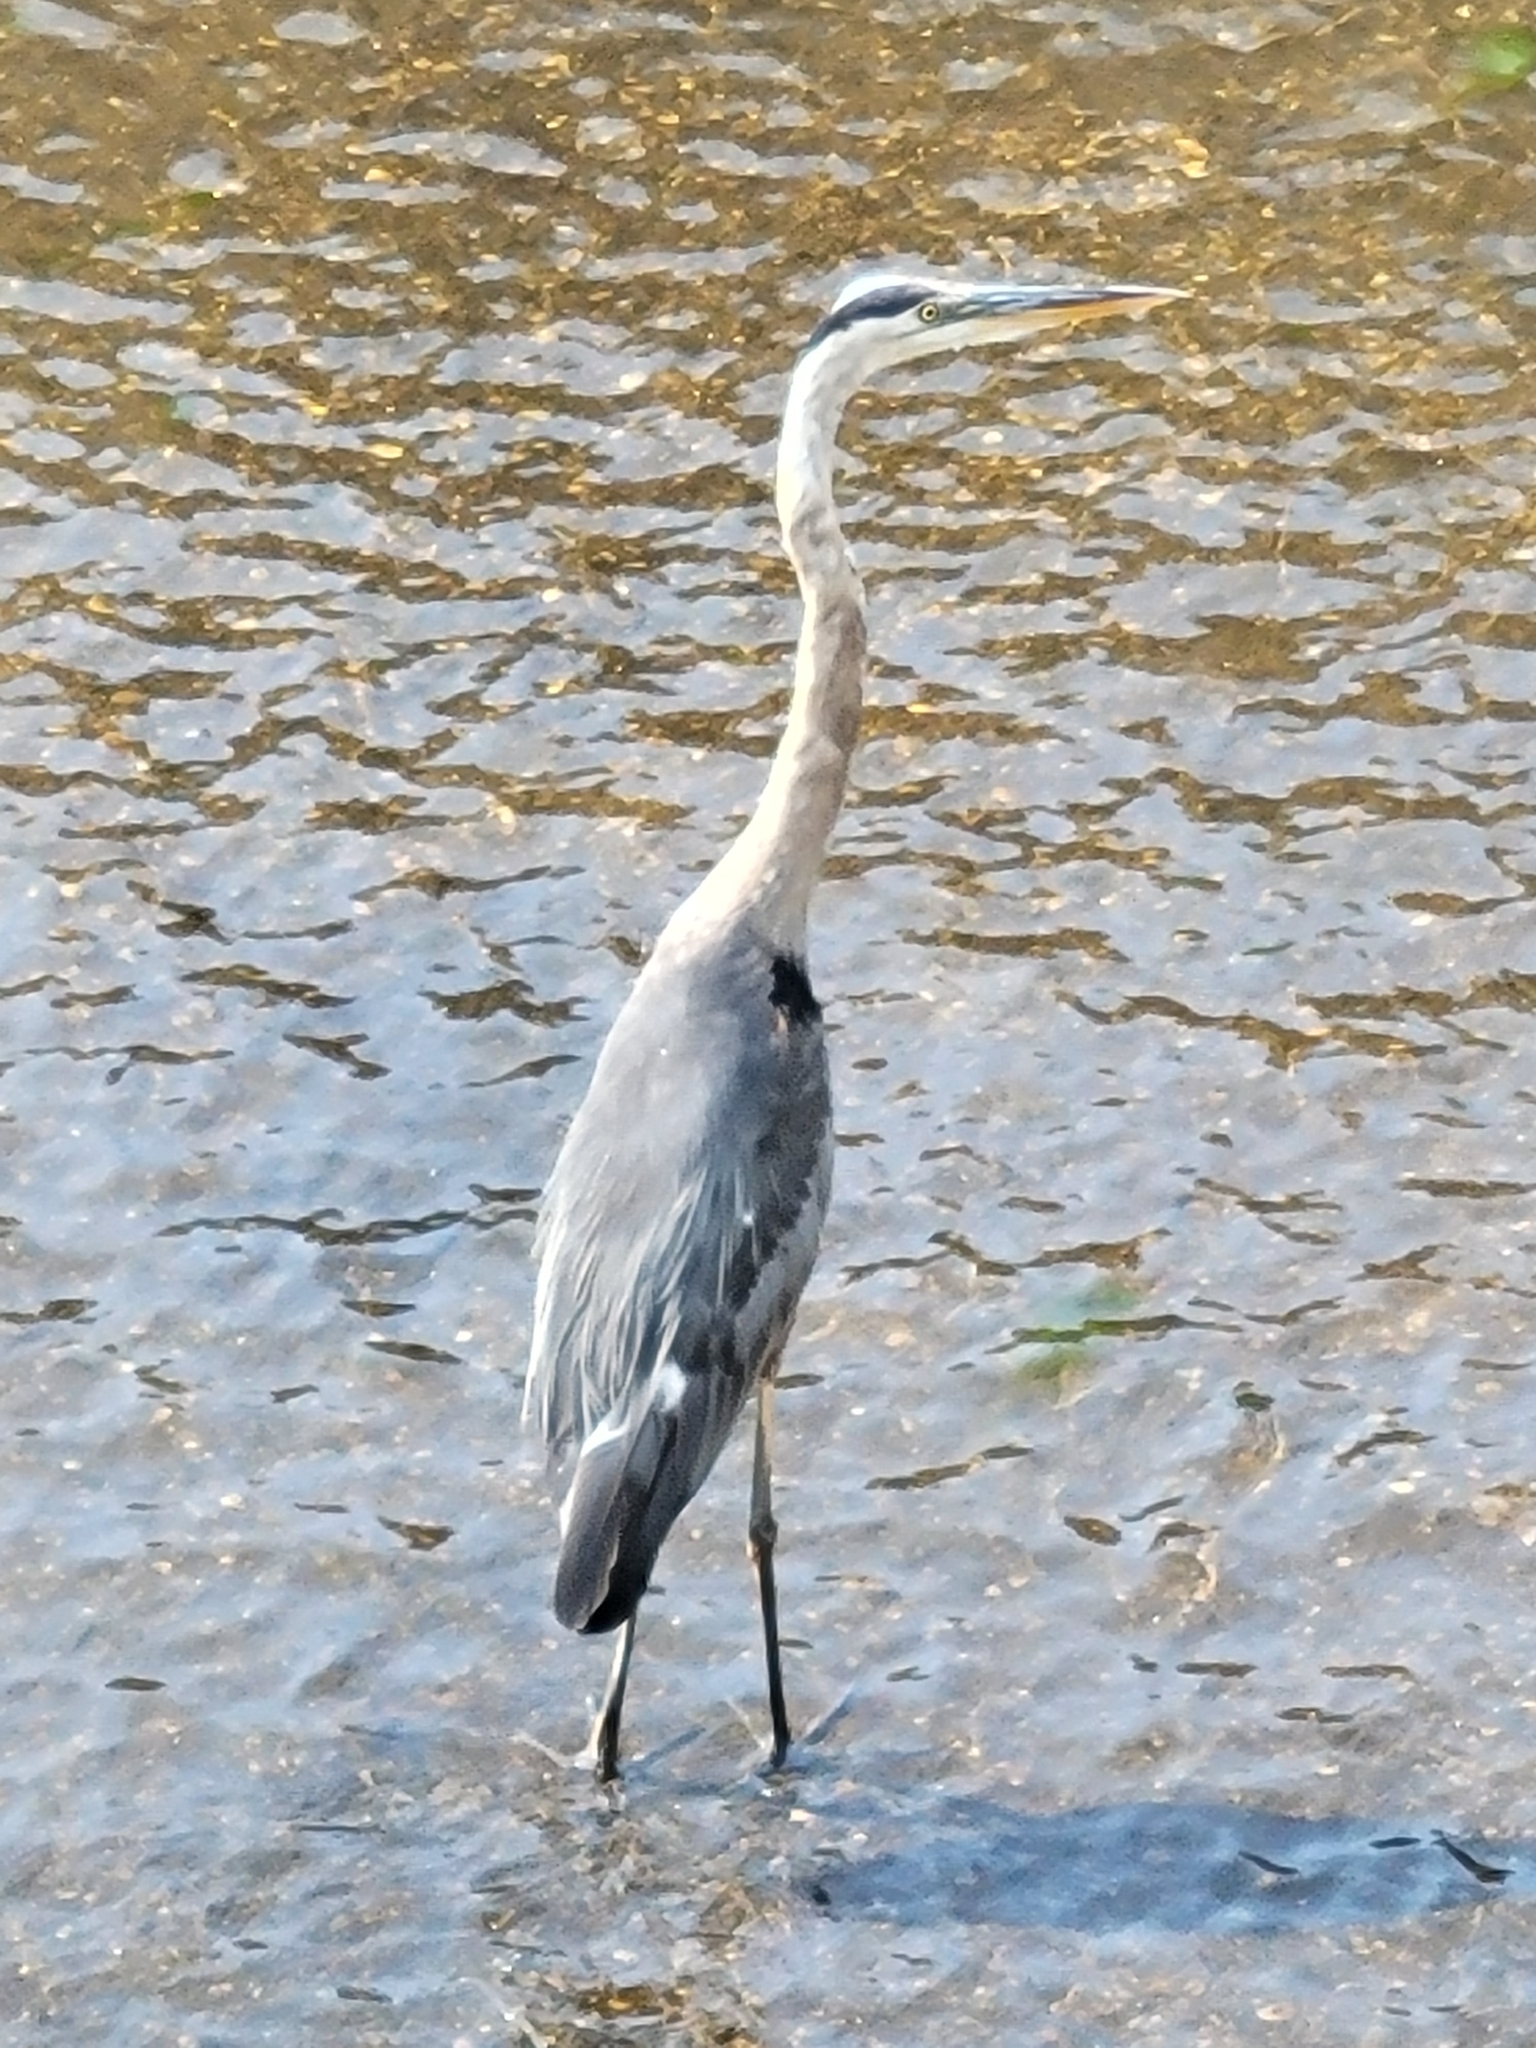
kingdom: Animalia
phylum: Chordata
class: Aves
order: Pelecaniformes
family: Ardeidae
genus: Ardea
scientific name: Ardea herodias
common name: Great blue heron
